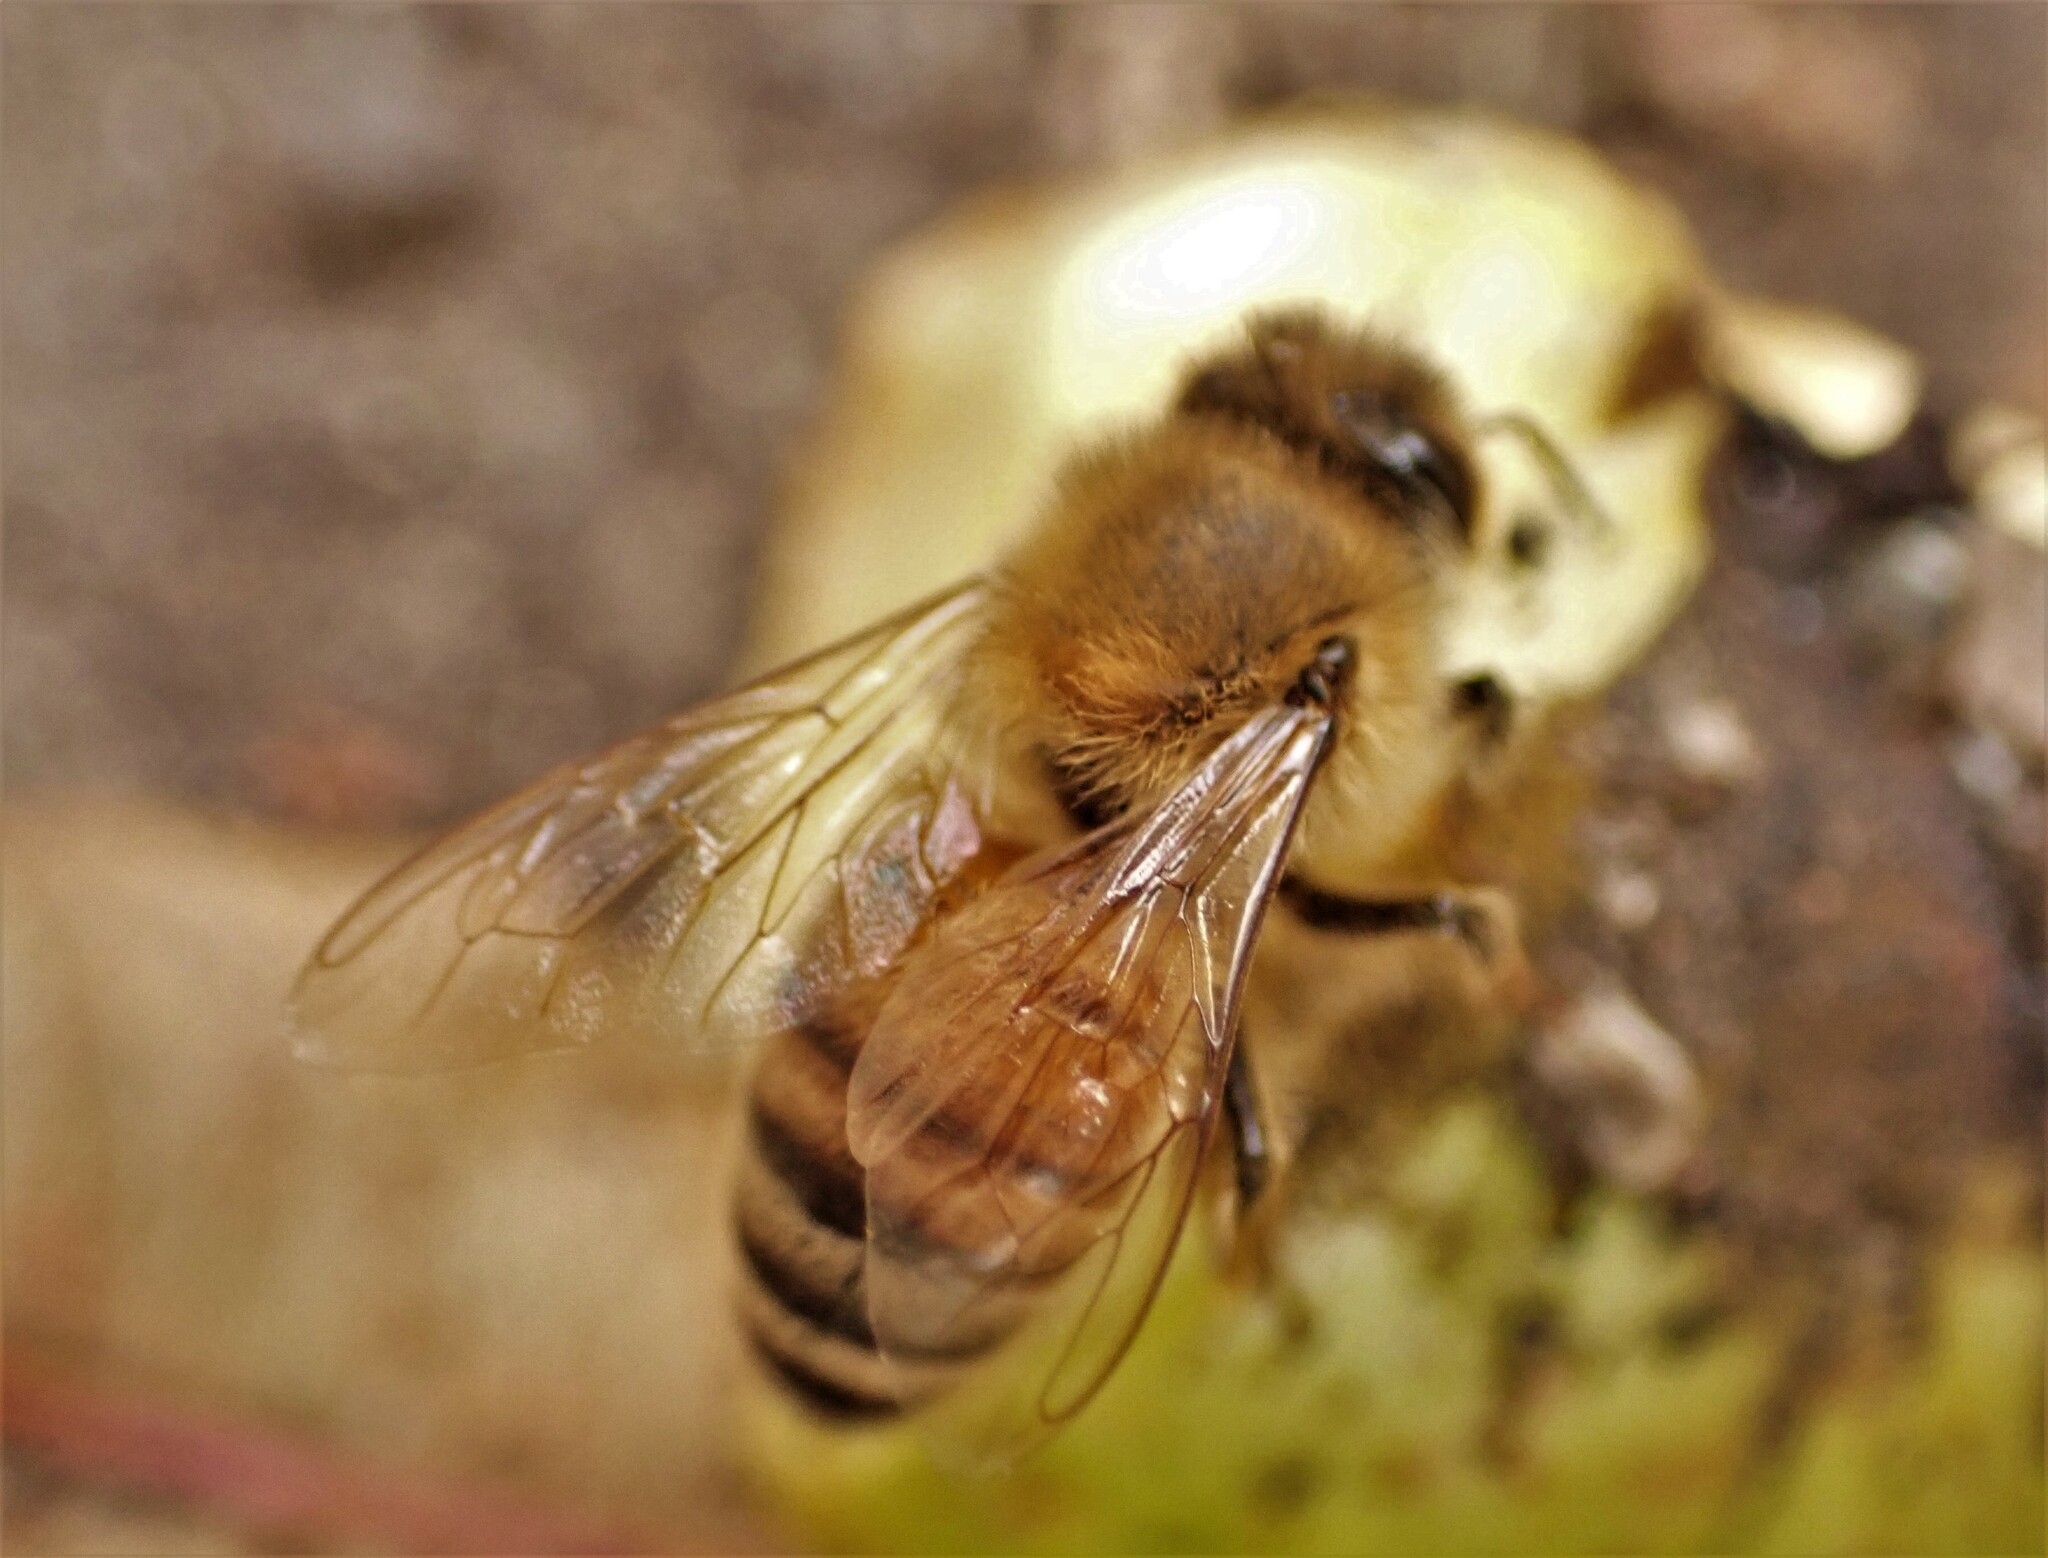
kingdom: Animalia
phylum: Arthropoda
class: Insecta
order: Hymenoptera
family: Apidae
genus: Apis
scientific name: Apis mellifera
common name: Honey bee
